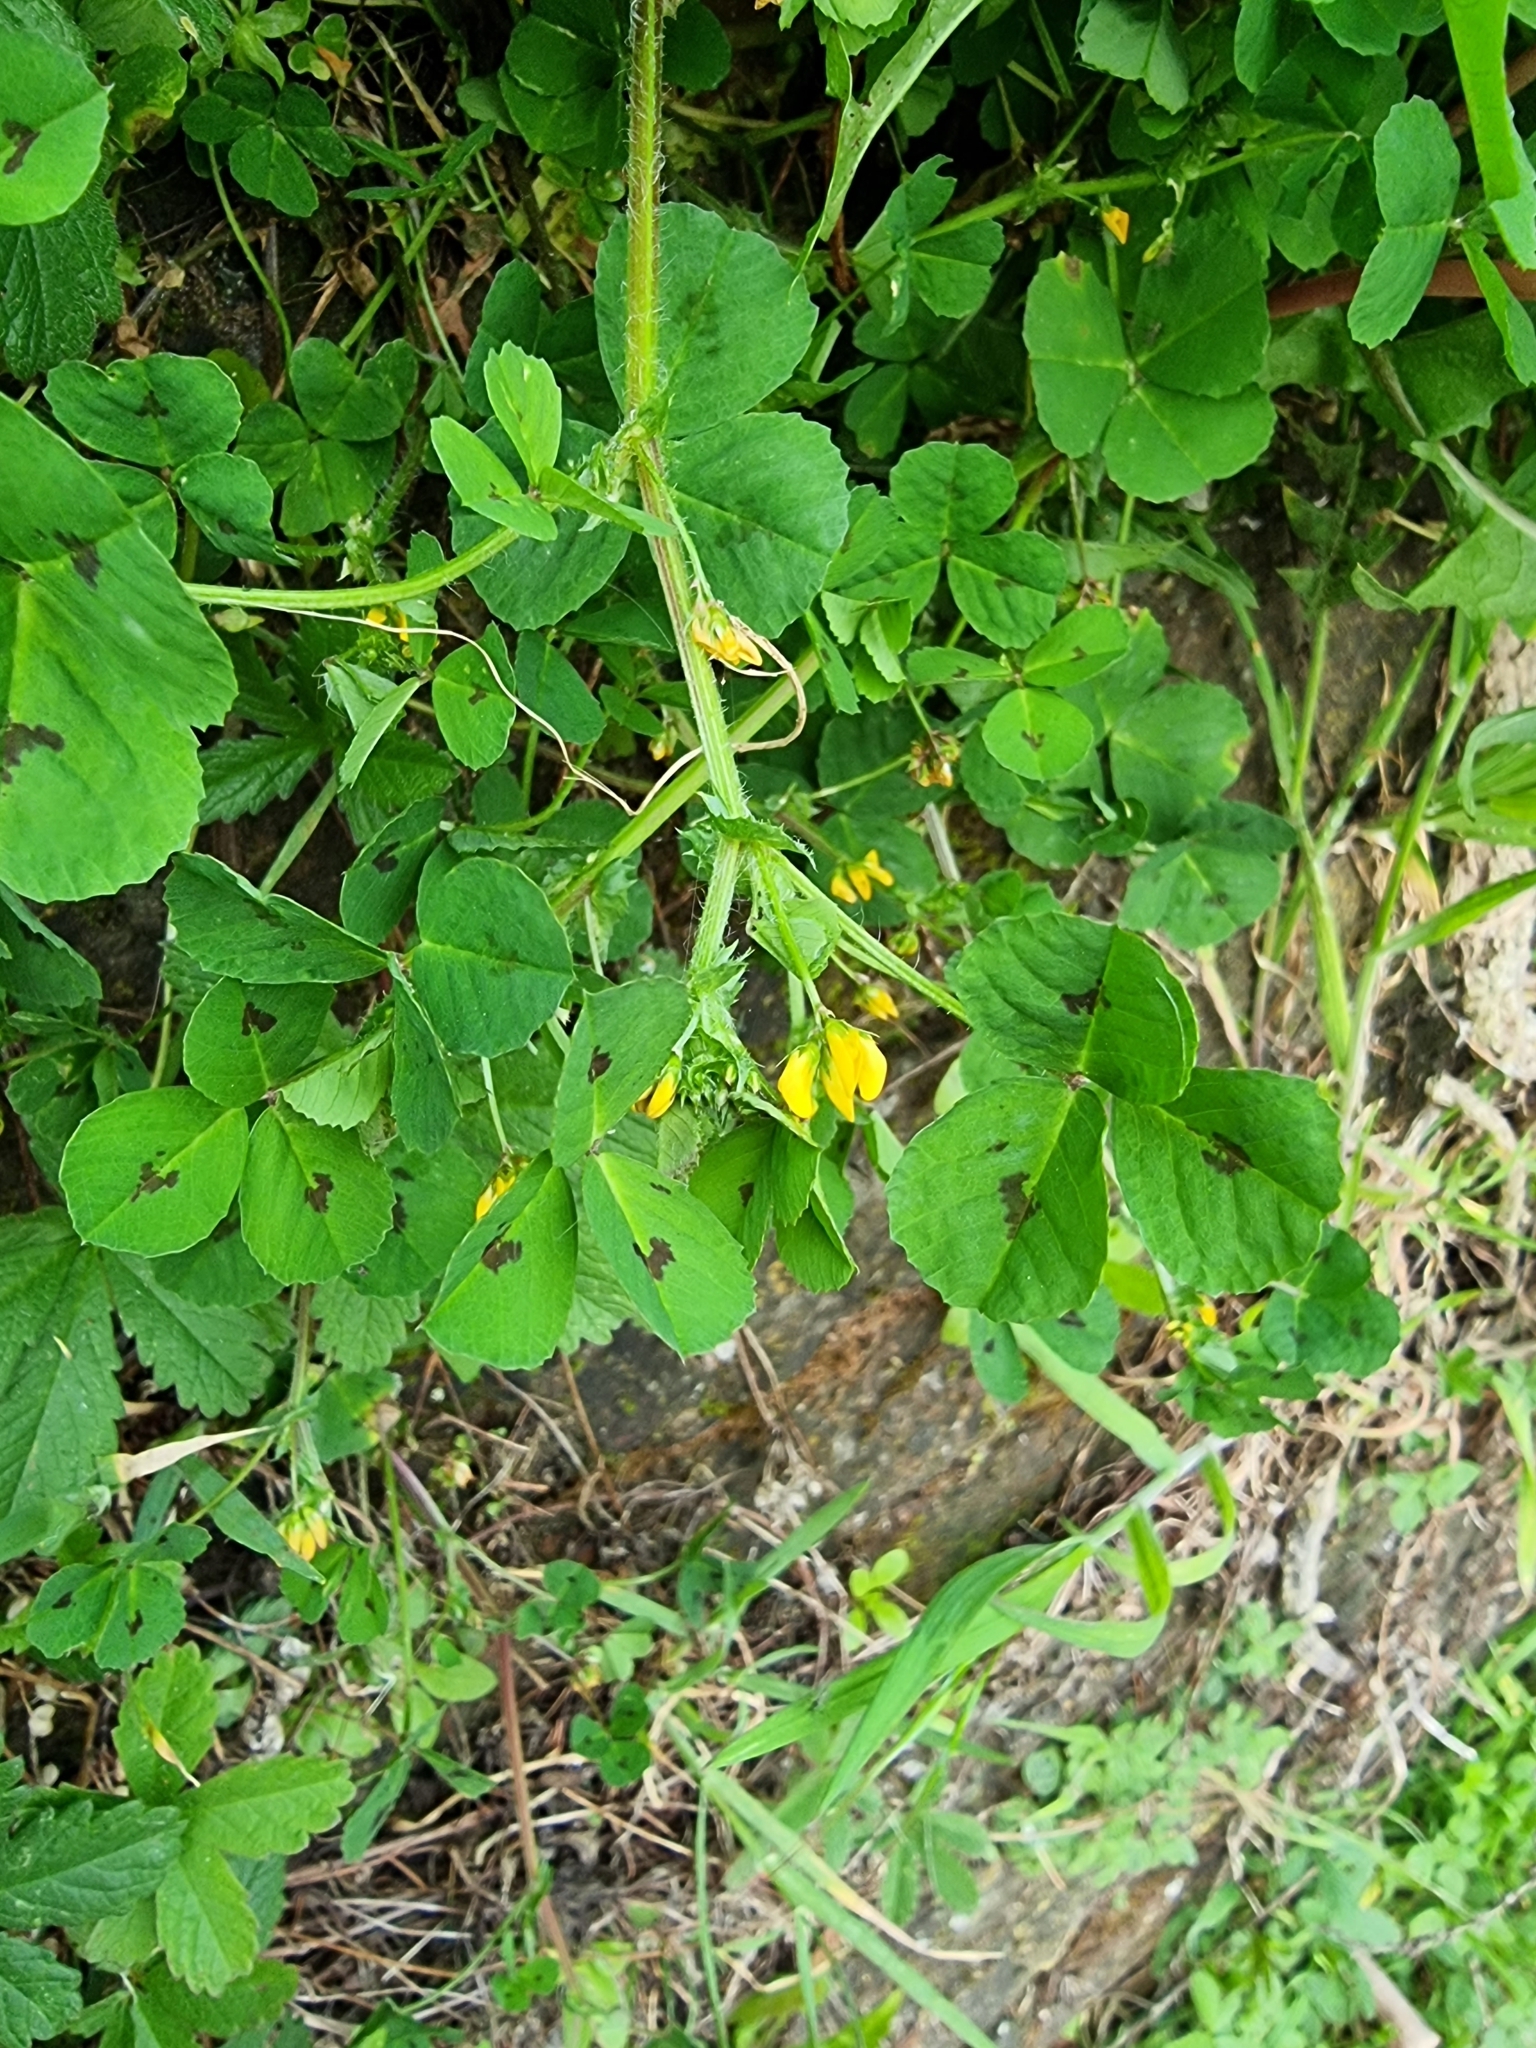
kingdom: Plantae
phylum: Tracheophyta
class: Magnoliopsida
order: Fabales
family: Fabaceae
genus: Medicago
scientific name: Medicago arabica
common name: Spotted medick
